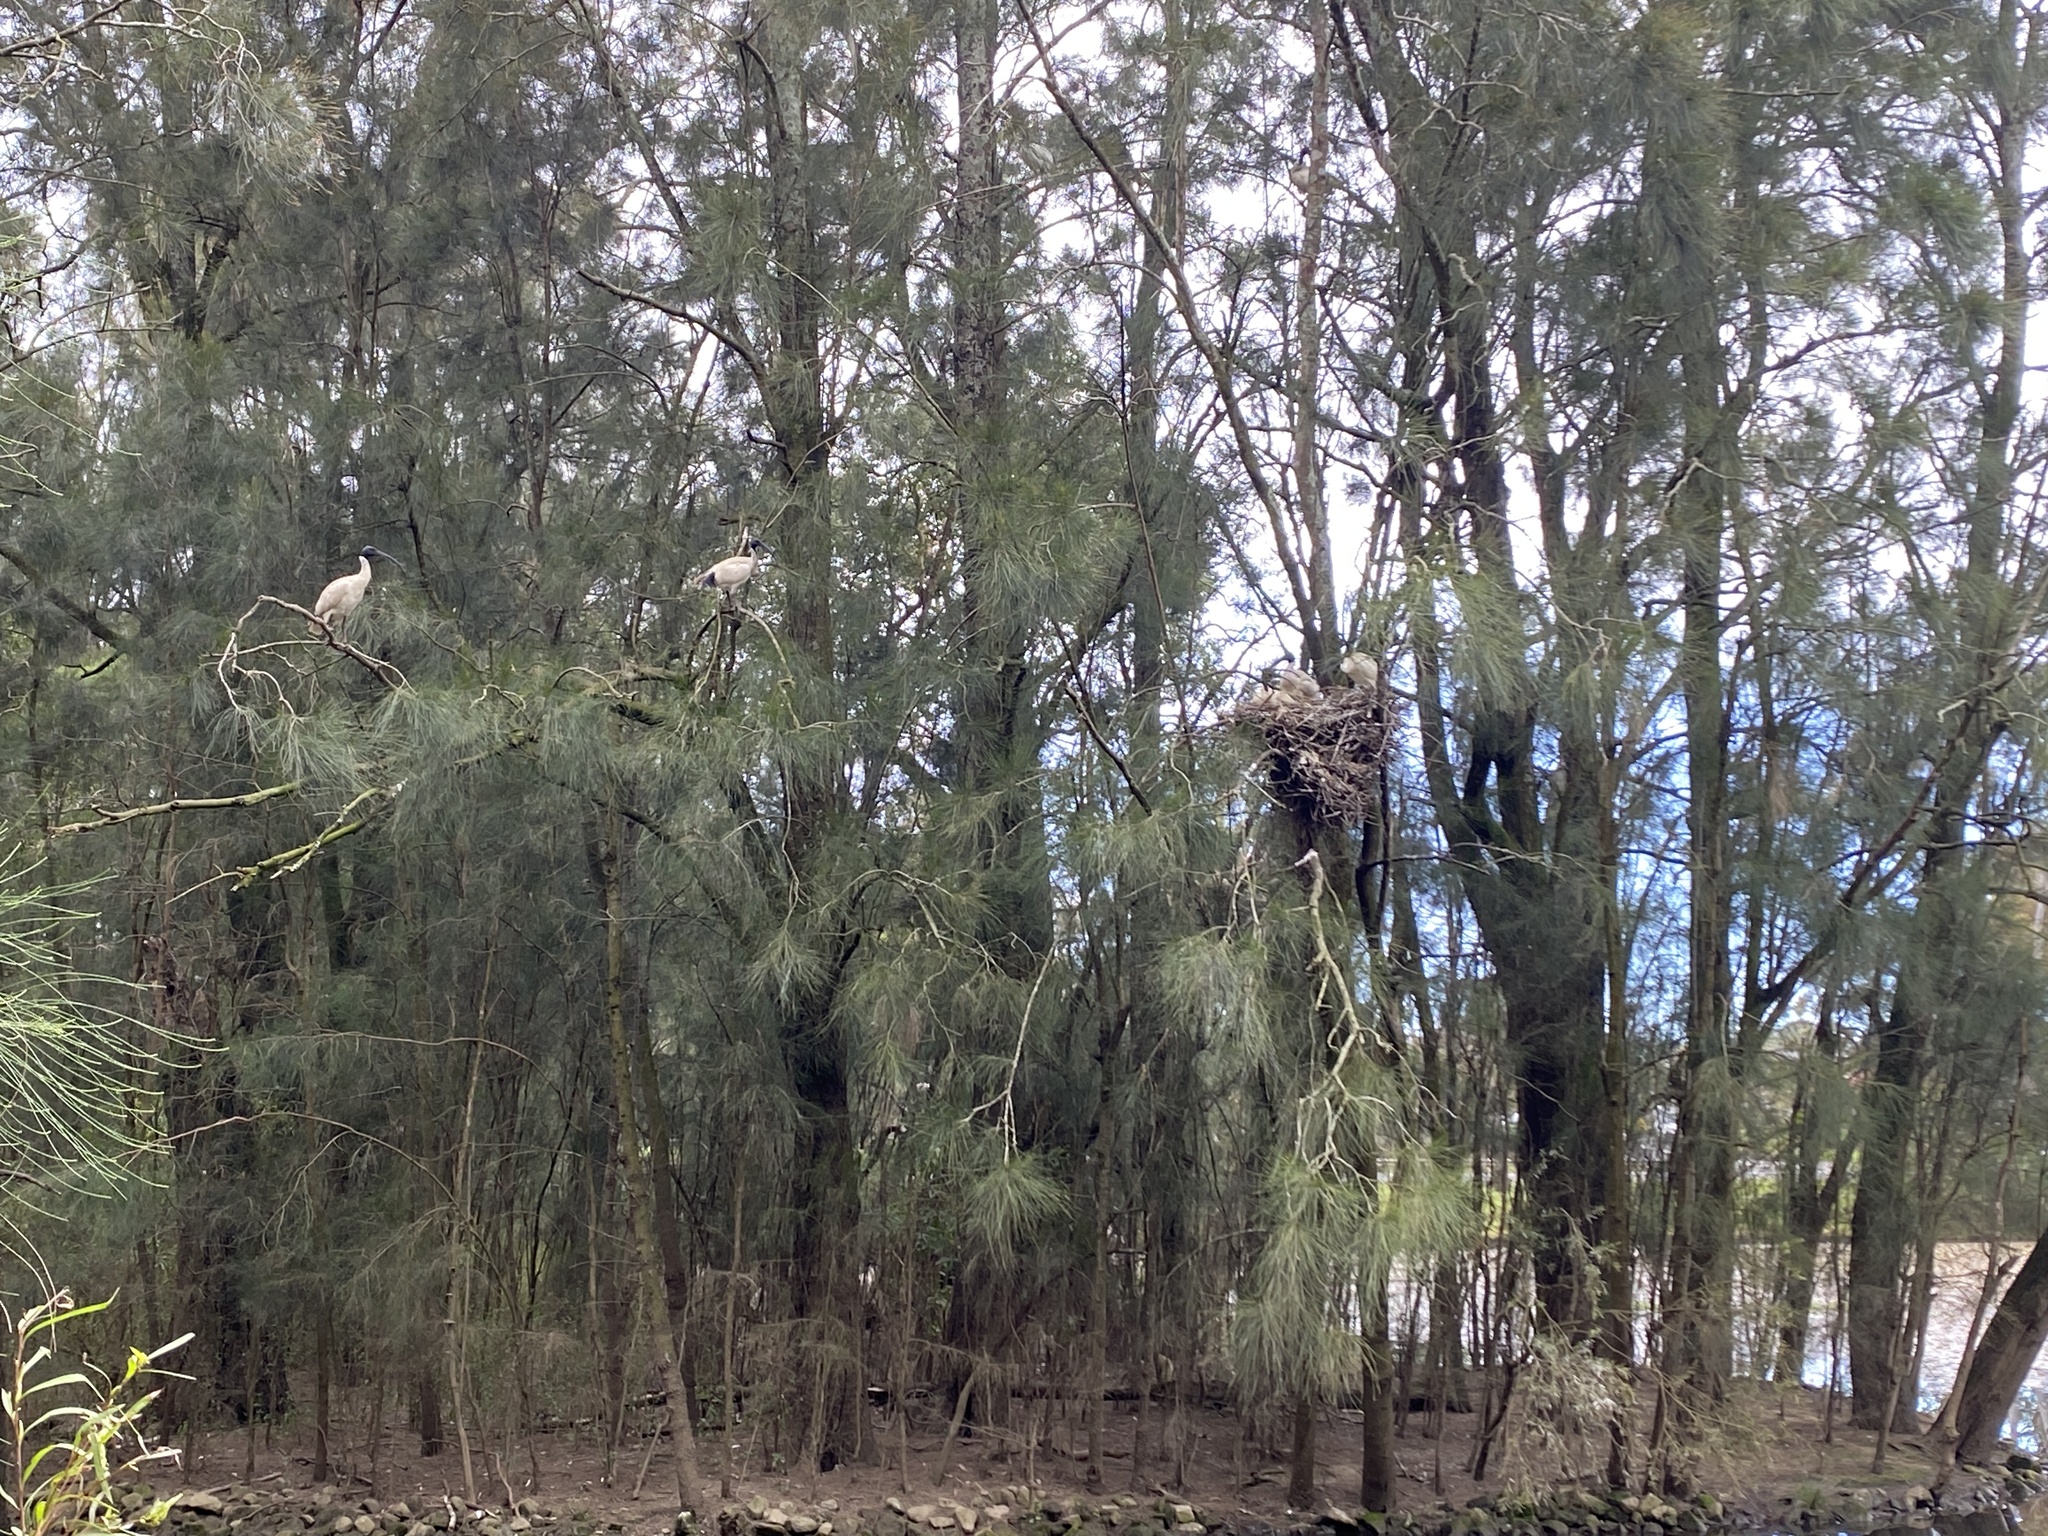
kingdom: Animalia
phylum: Chordata
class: Aves
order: Pelecaniformes
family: Threskiornithidae
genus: Threskiornis
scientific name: Threskiornis molucca
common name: Australian white ibis
